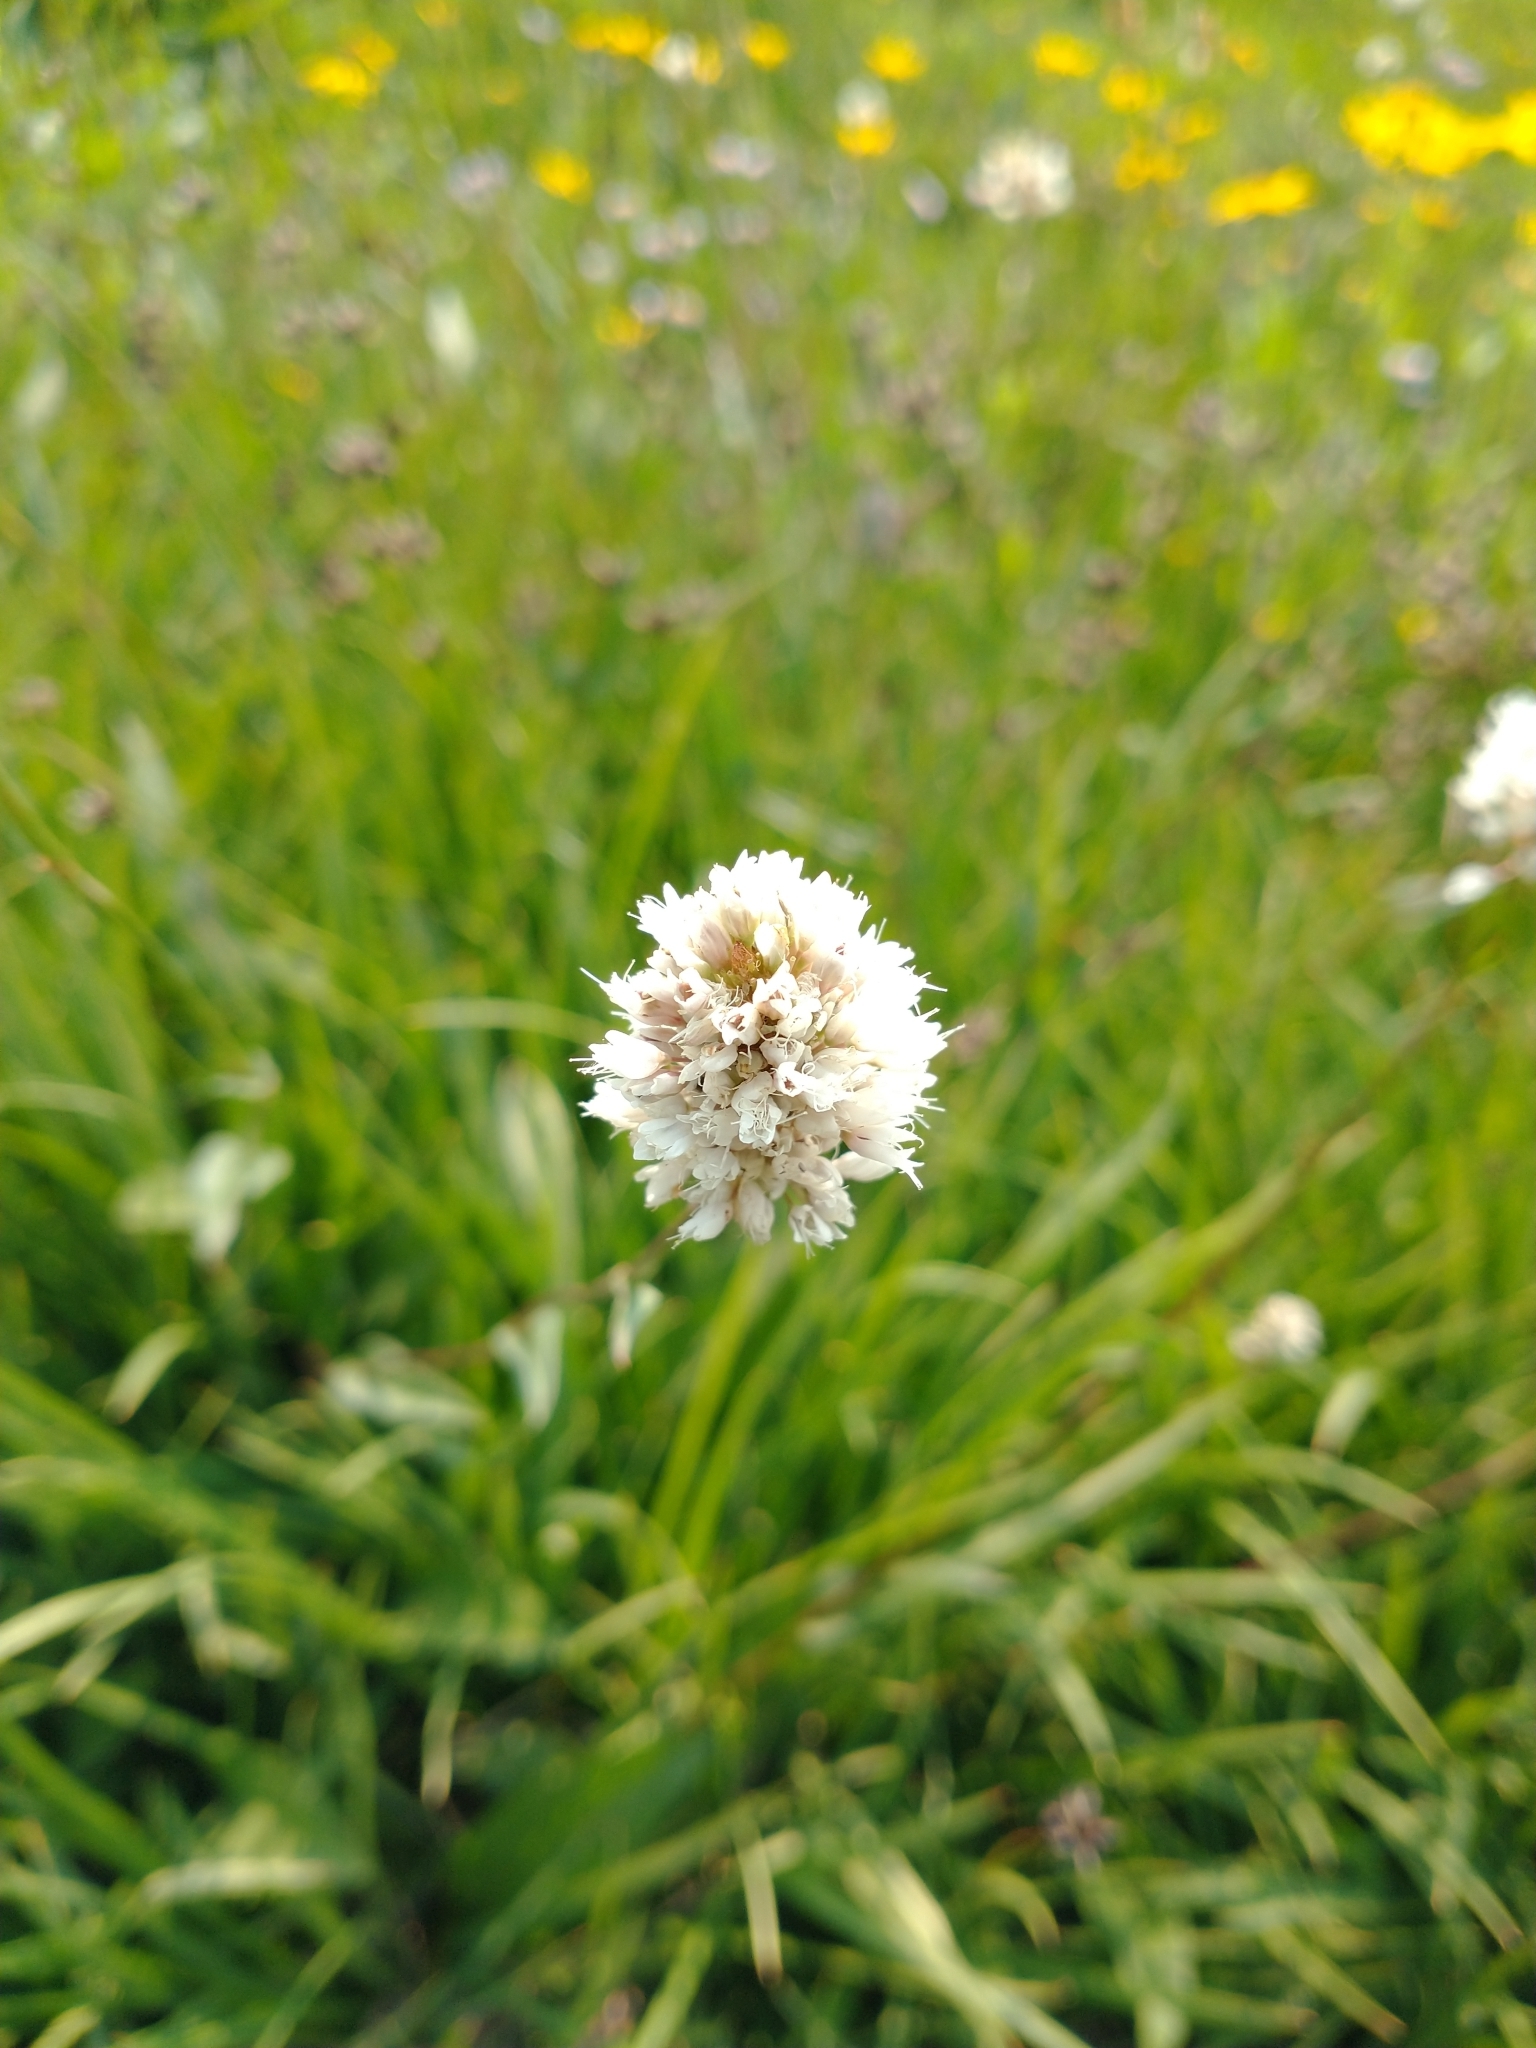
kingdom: Plantae
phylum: Tracheophyta
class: Magnoliopsida
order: Caryophyllales
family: Polygonaceae
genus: Bistorta
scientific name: Bistorta bistortoides
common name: American bistort
